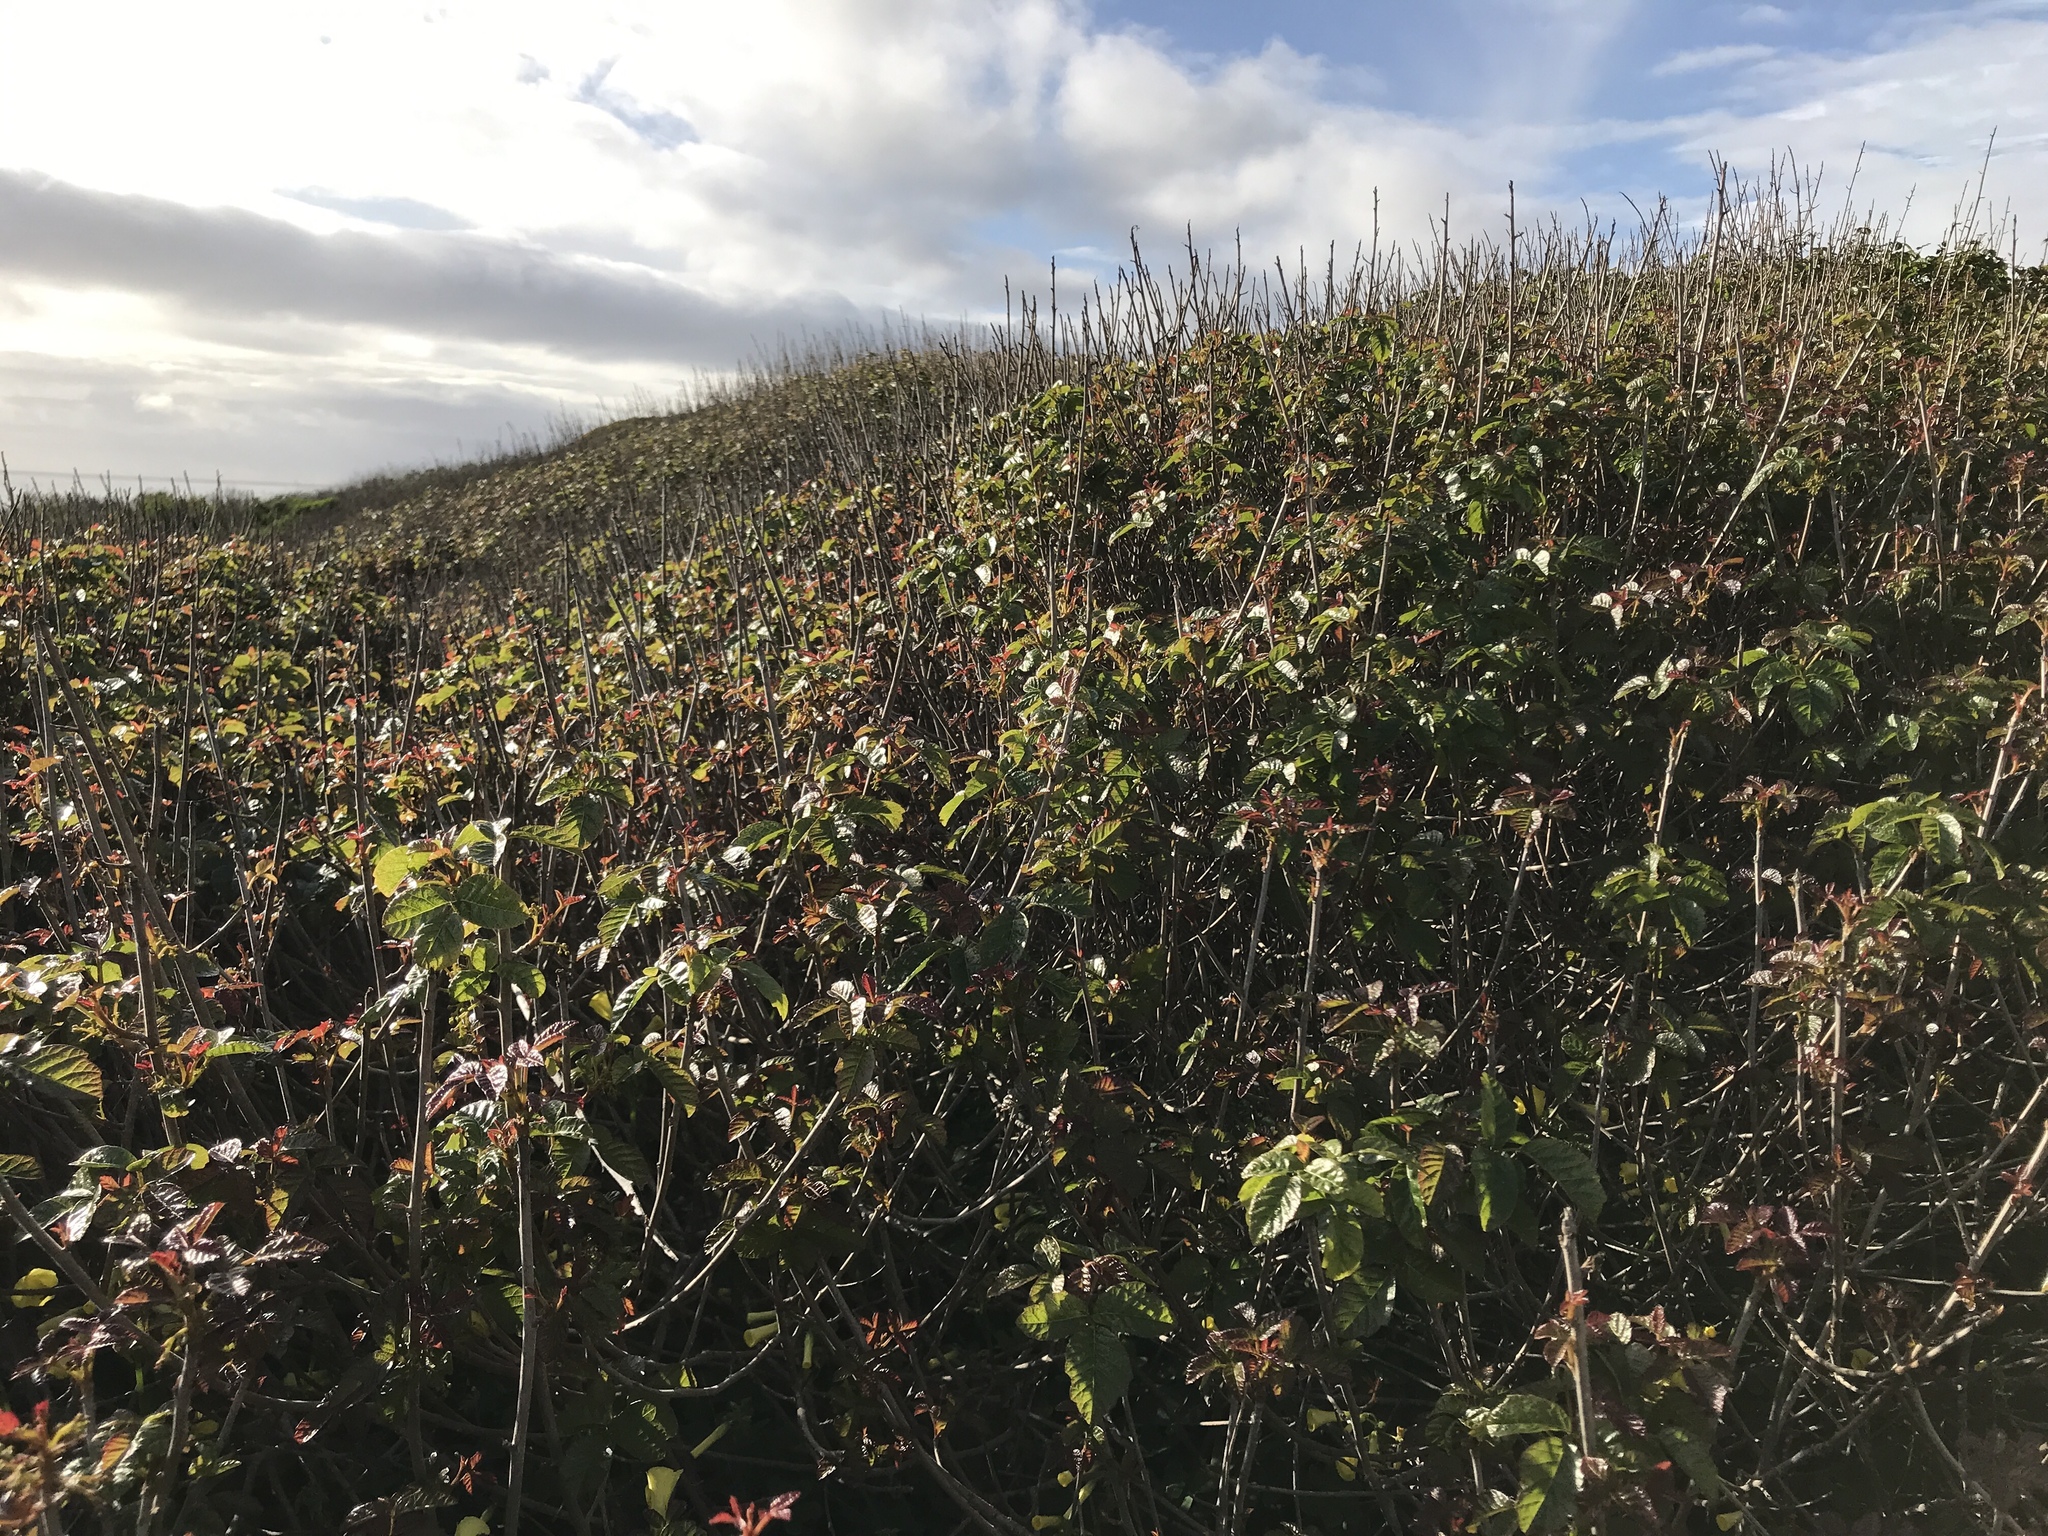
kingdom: Plantae
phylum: Tracheophyta
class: Magnoliopsida
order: Sapindales
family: Anacardiaceae
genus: Toxicodendron
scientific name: Toxicodendron diversilobum
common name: Pacific poison-oak
